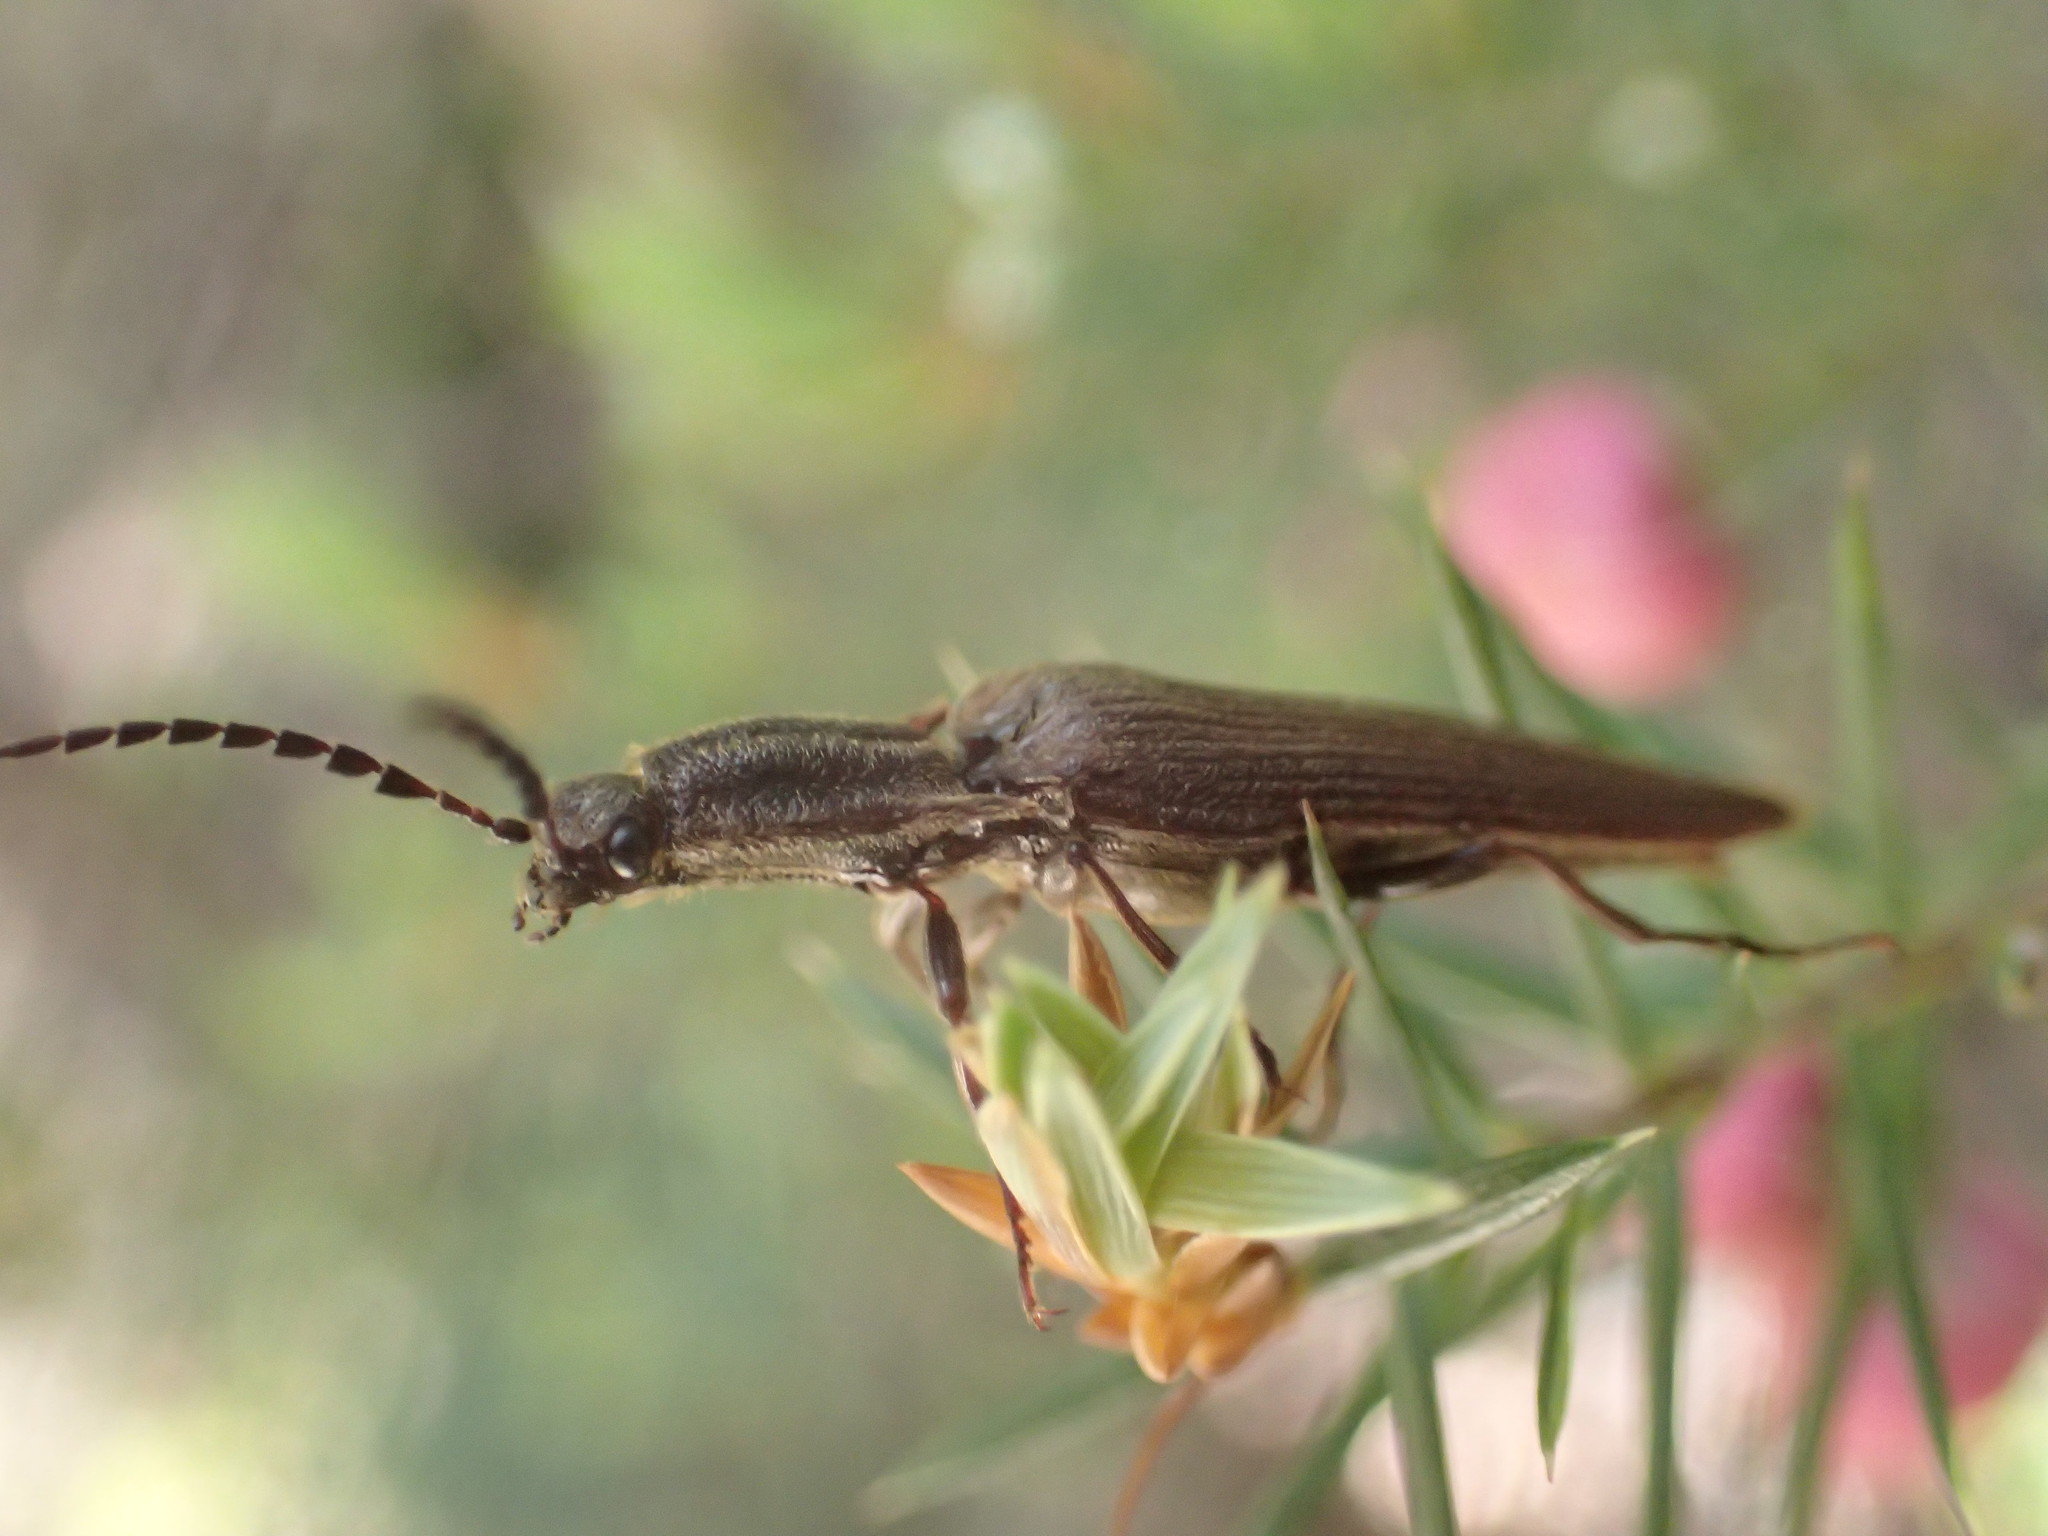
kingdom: Animalia
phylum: Arthropoda
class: Insecta
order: Coleoptera
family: Elateridae
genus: Elatichrosis
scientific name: Elatichrosis
